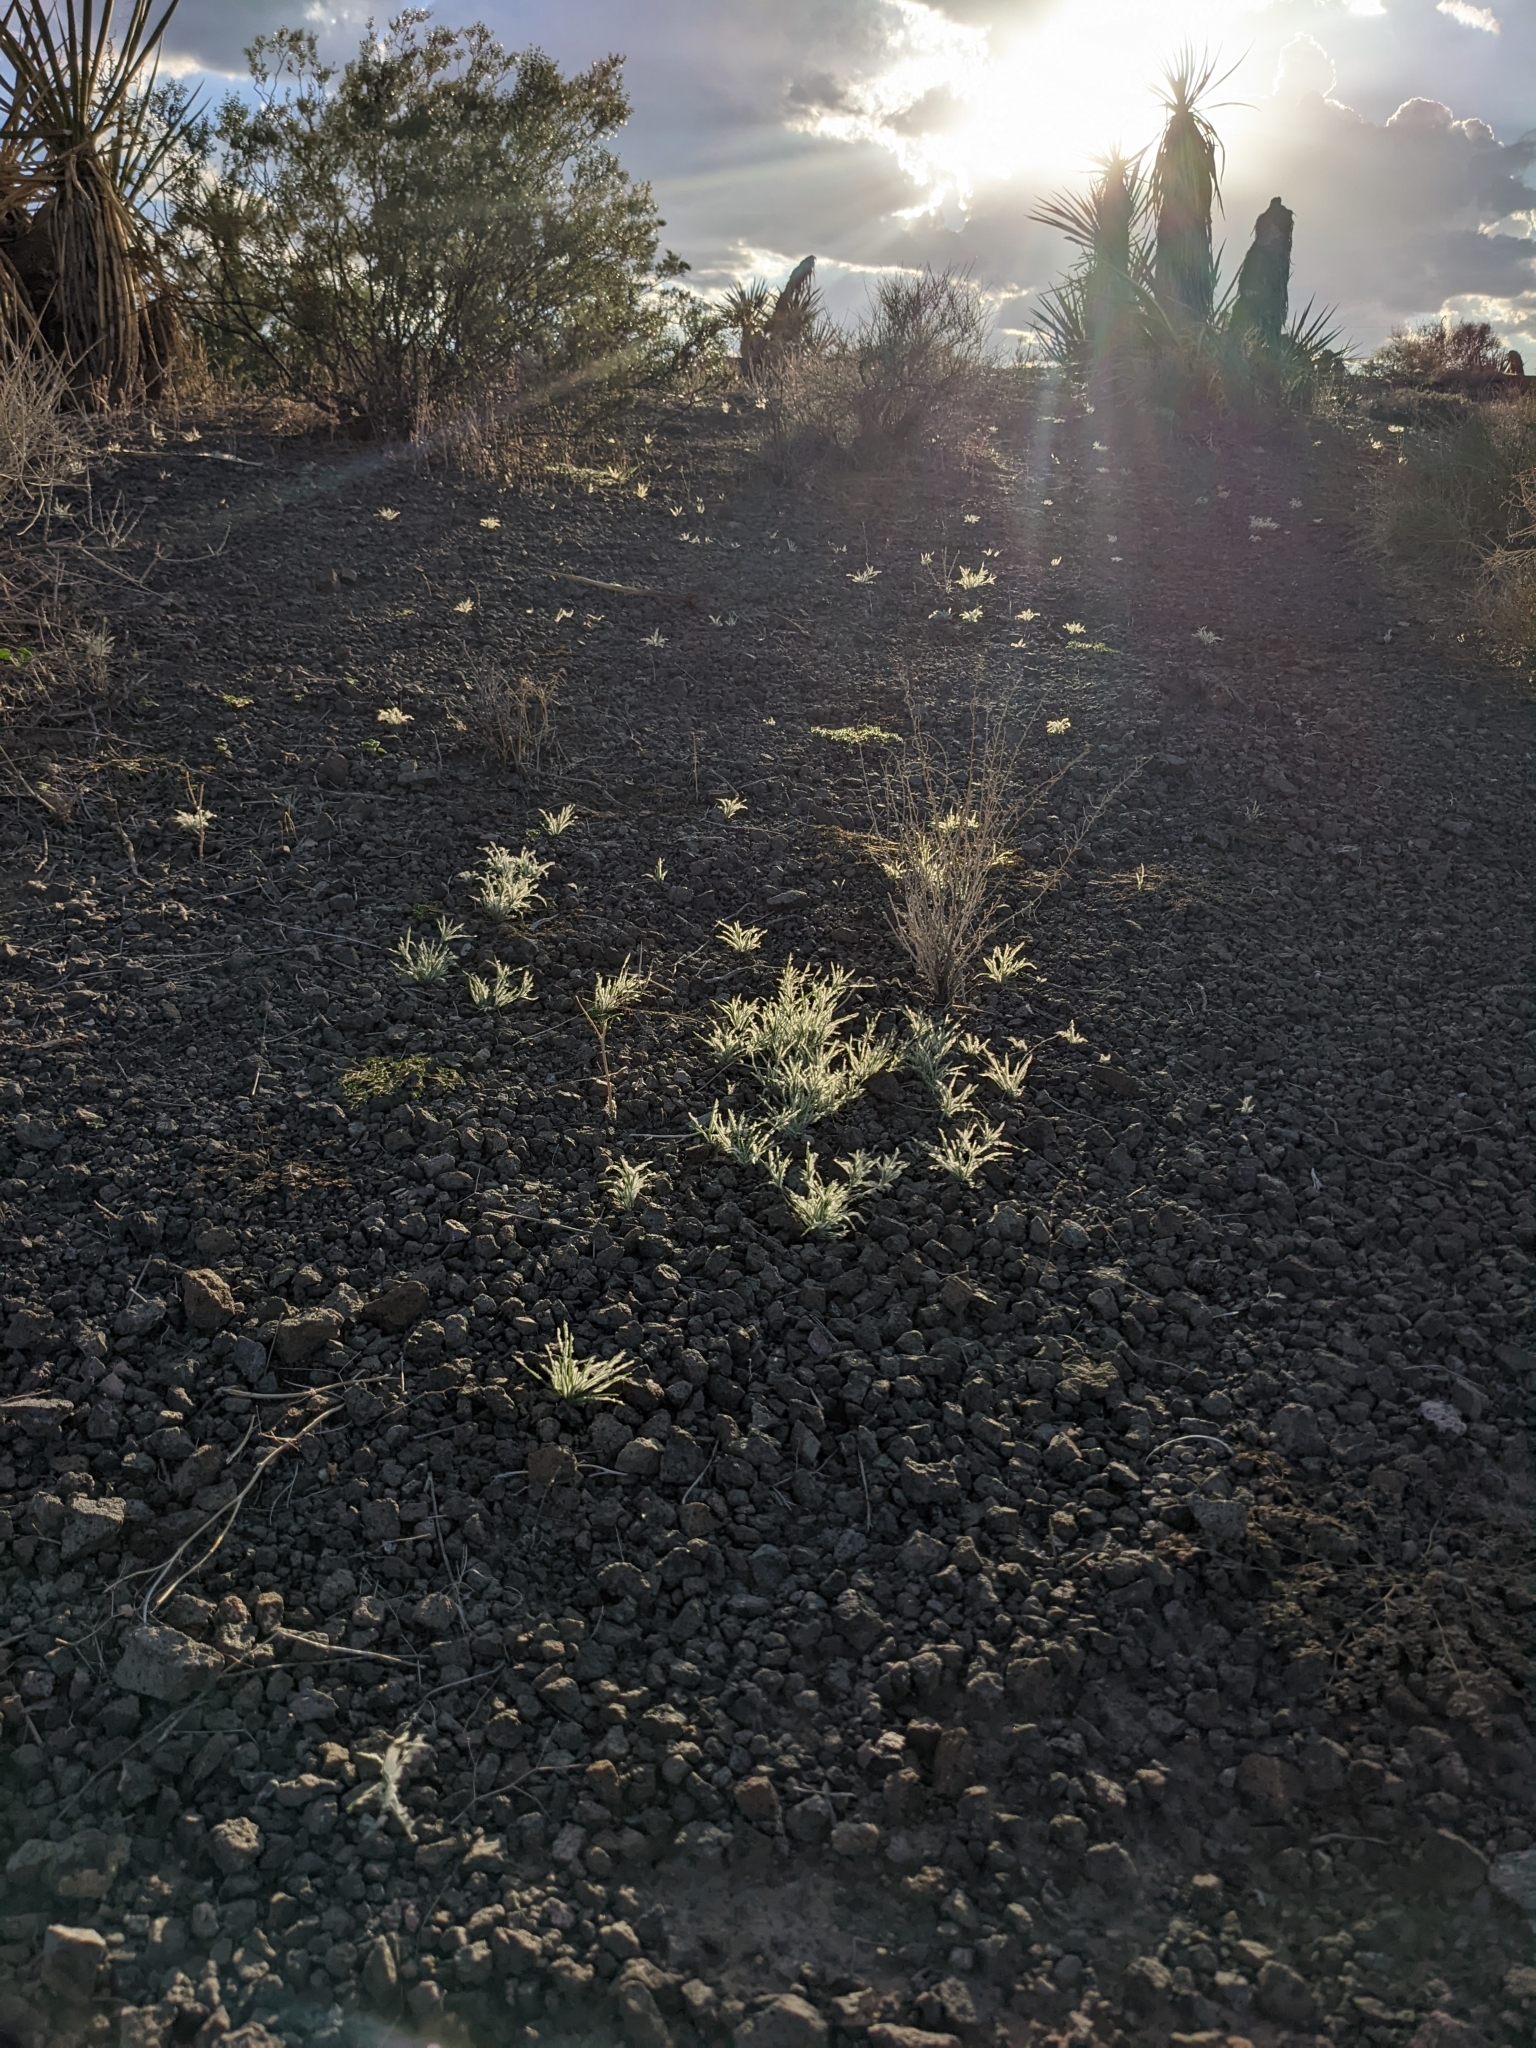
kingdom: Plantae
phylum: Tracheophyta
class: Liliopsida
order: Poales
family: Poaceae
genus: Dasyochloa
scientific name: Dasyochloa pulchella
